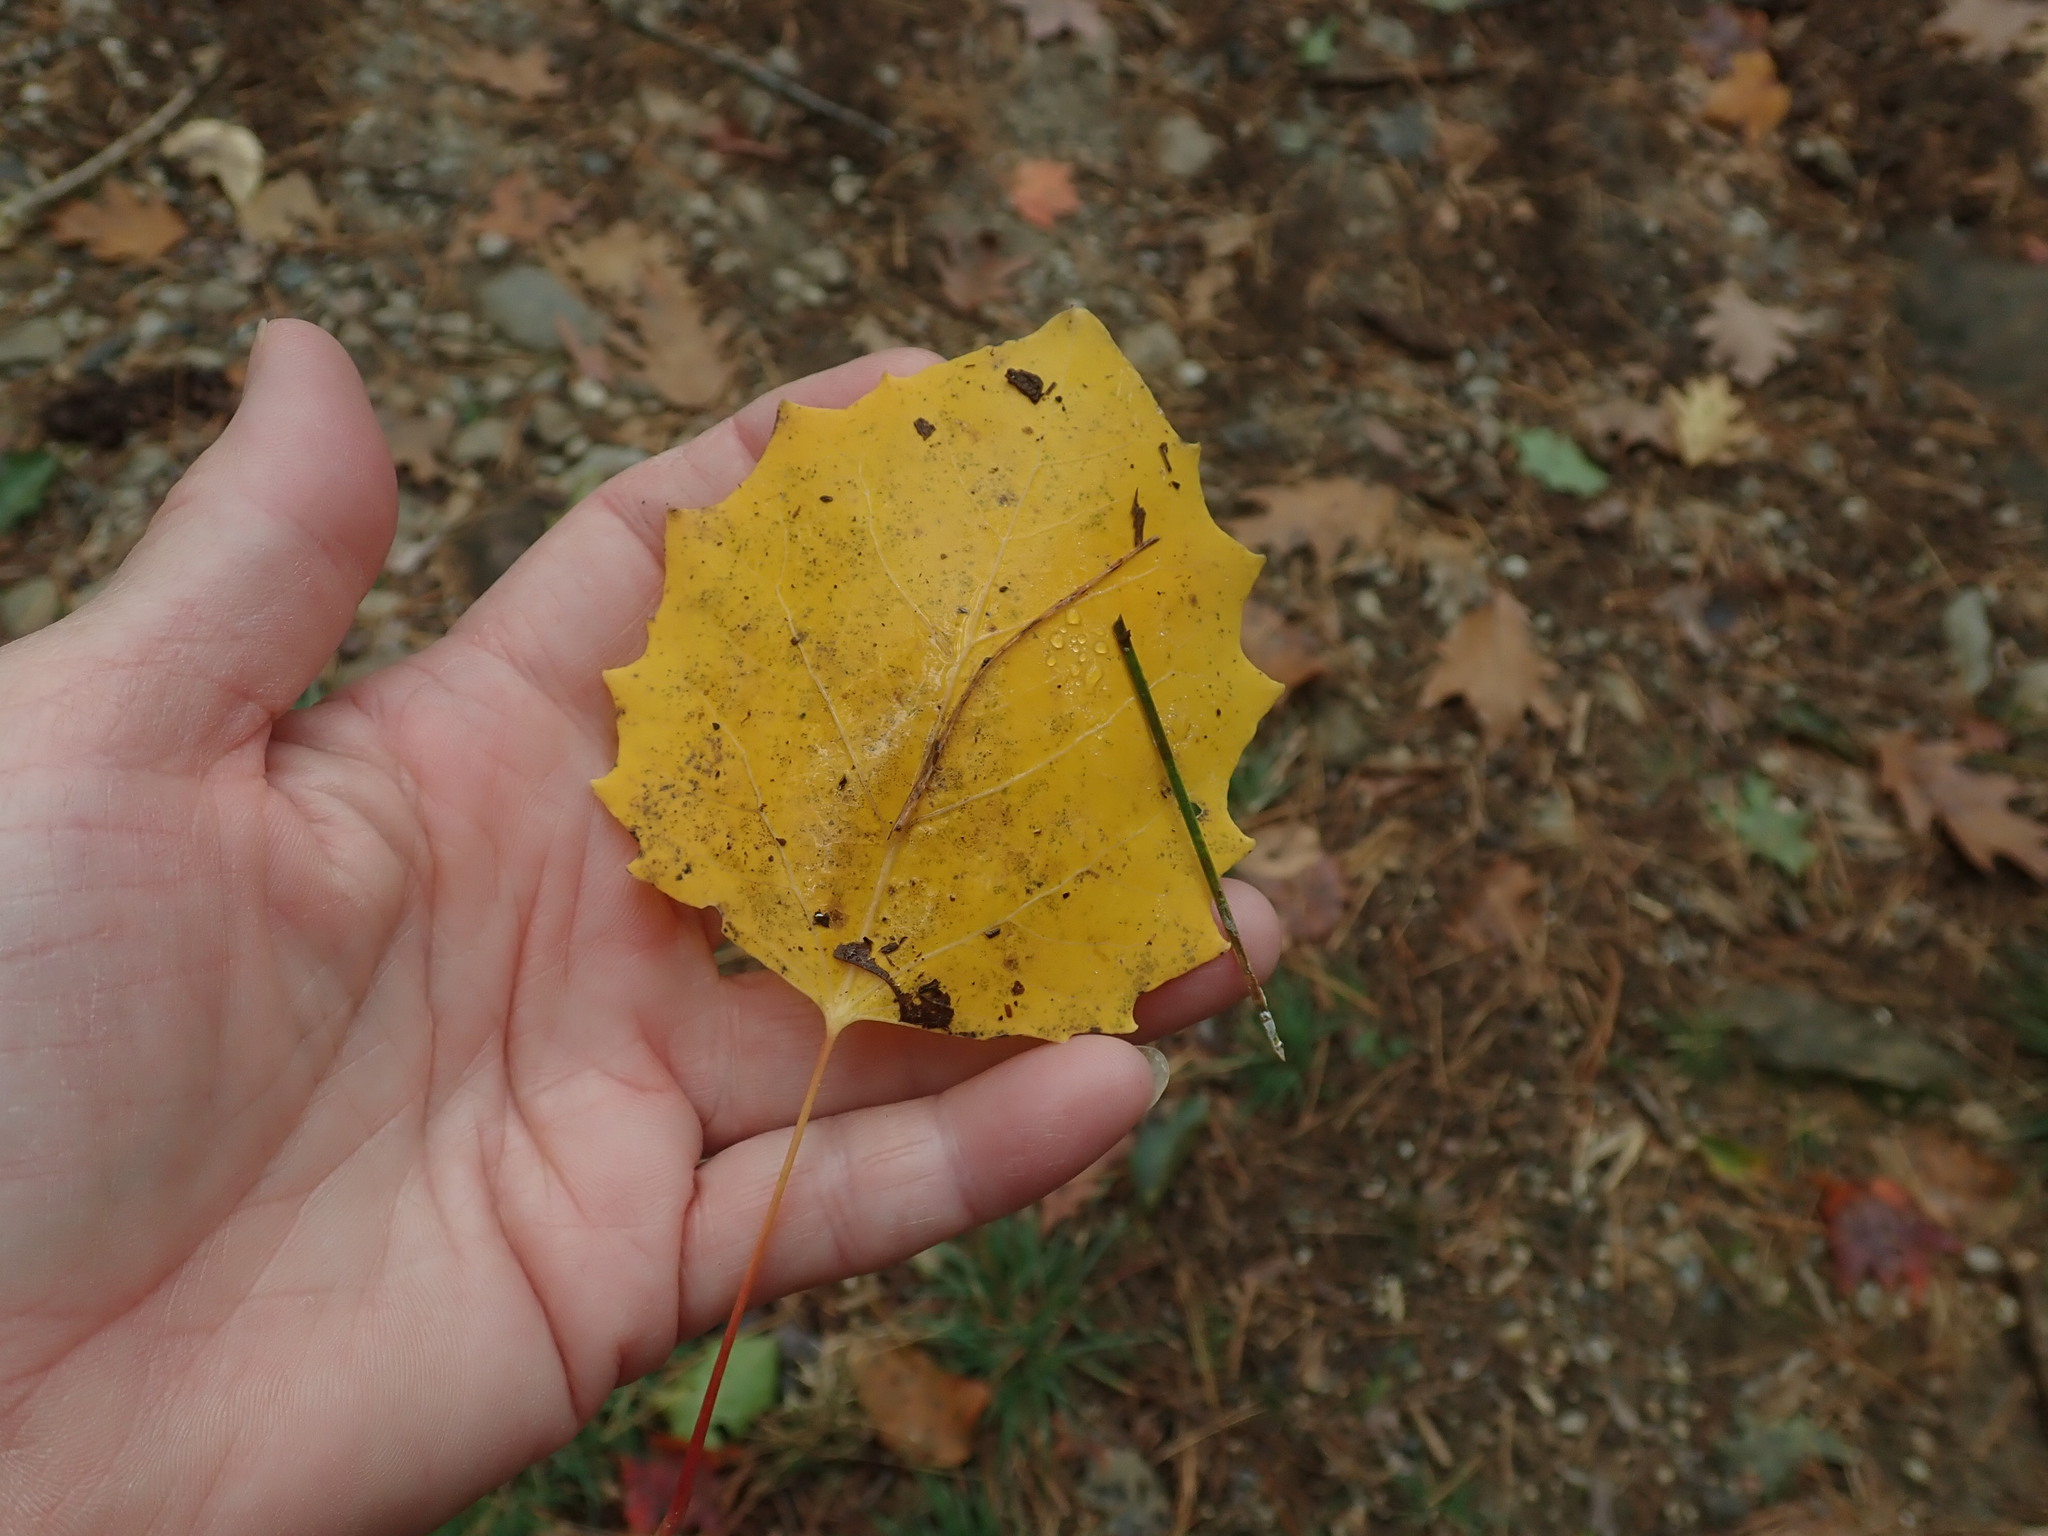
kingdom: Plantae
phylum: Tracheophyta
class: Magnoliopsida
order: Malpighiales
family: Salicaceae
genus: Populus
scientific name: Populus grandidentata
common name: Bigtooth aspen
